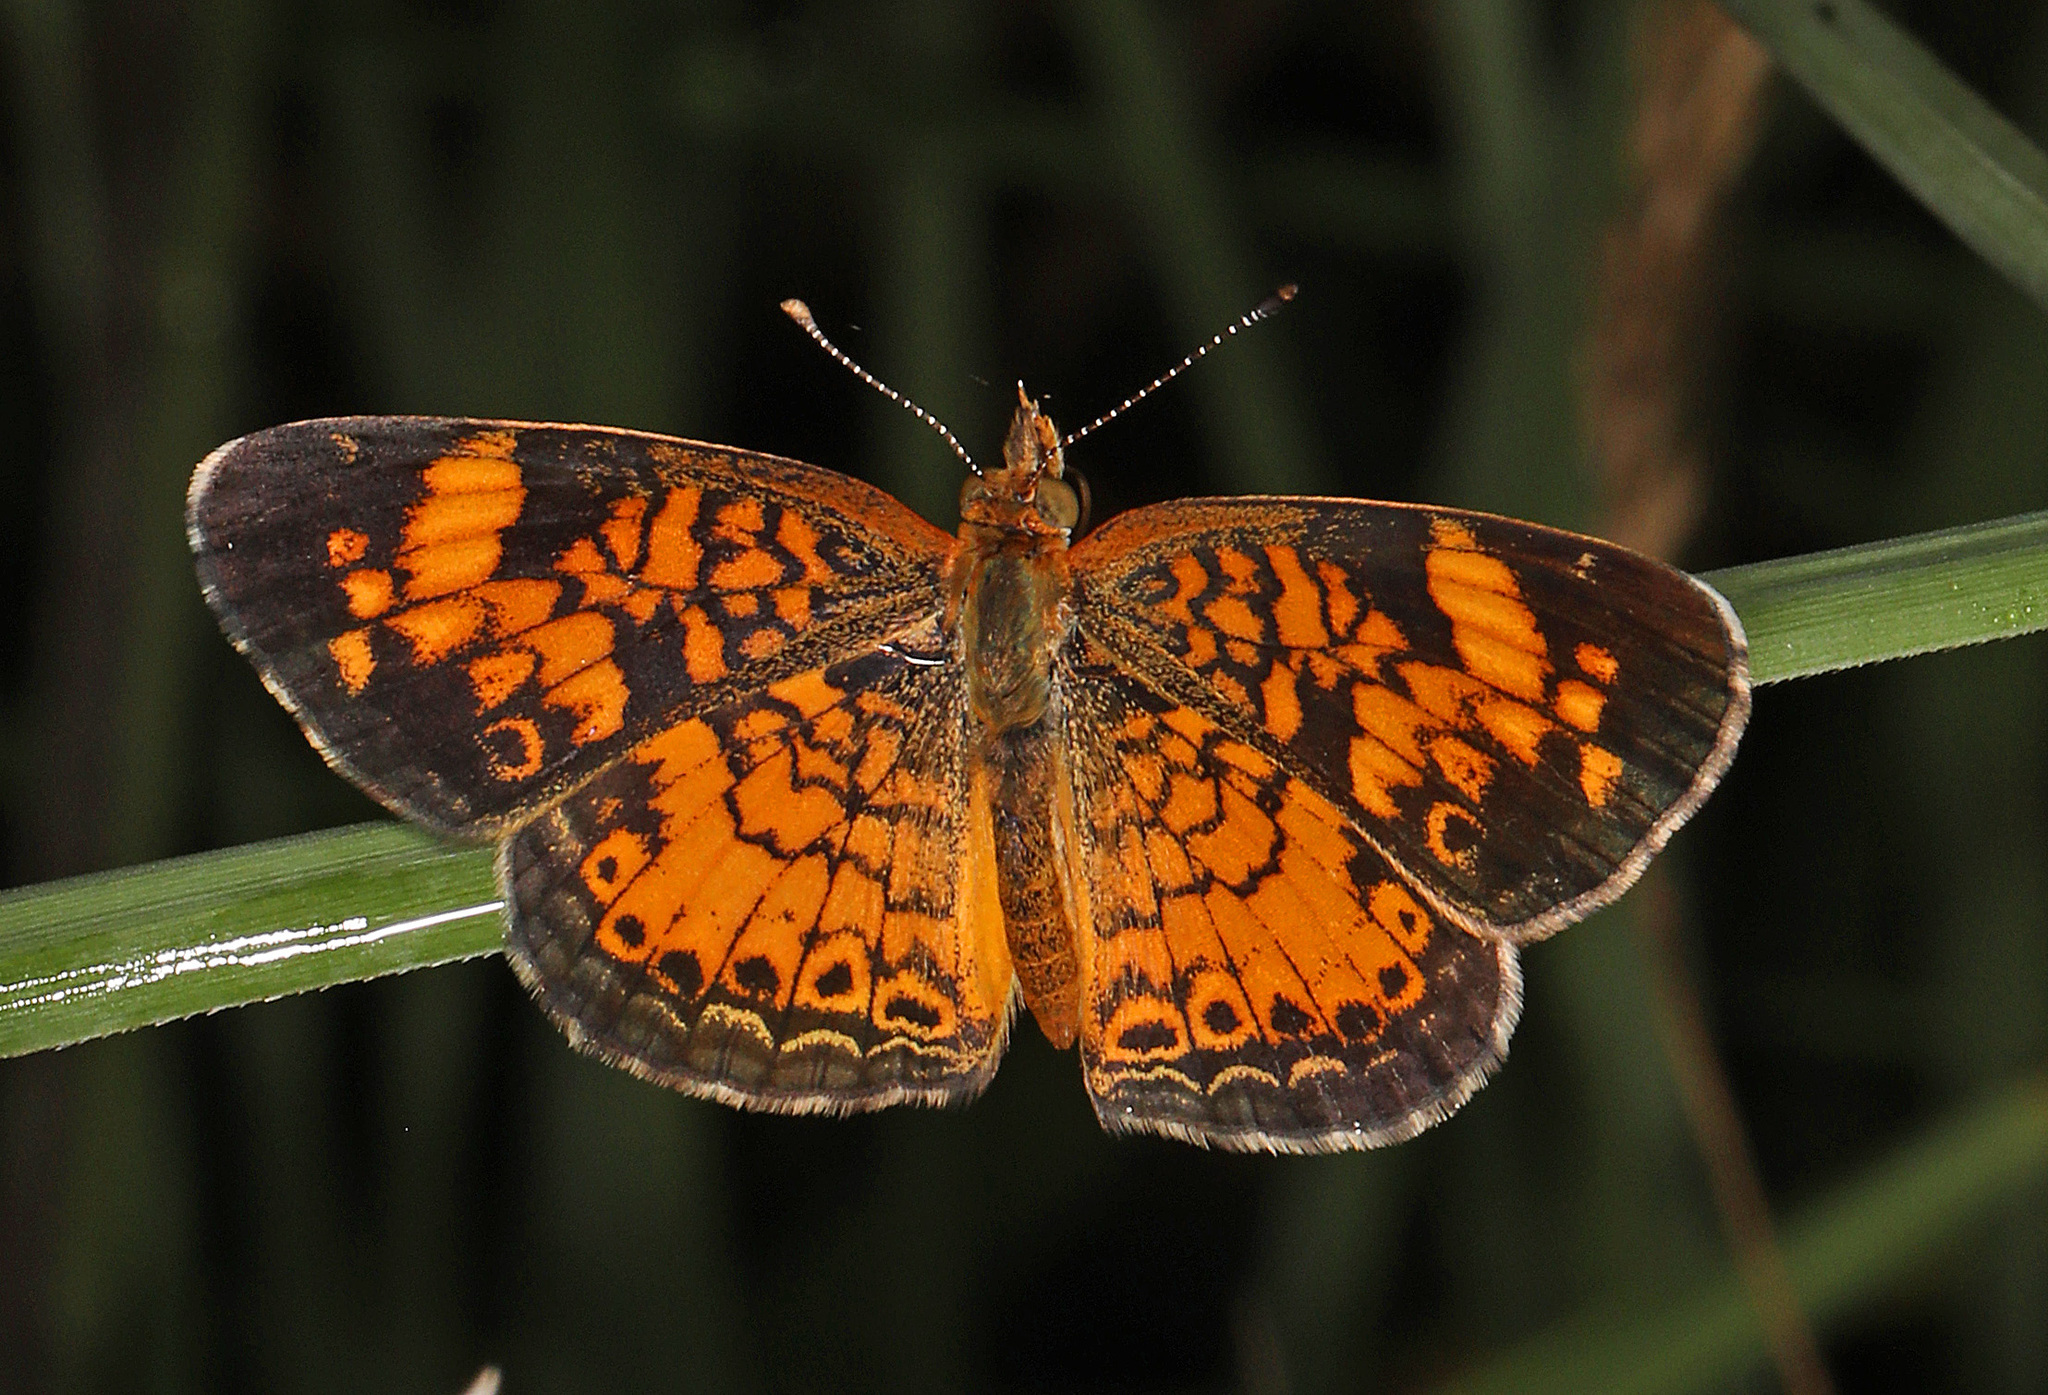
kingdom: Animalia
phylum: Arthropoda
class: Insecta
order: Lepidoptera
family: Nymphalidae
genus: Phyciodes
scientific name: Phyciodes tharos
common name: Pearl crescent
